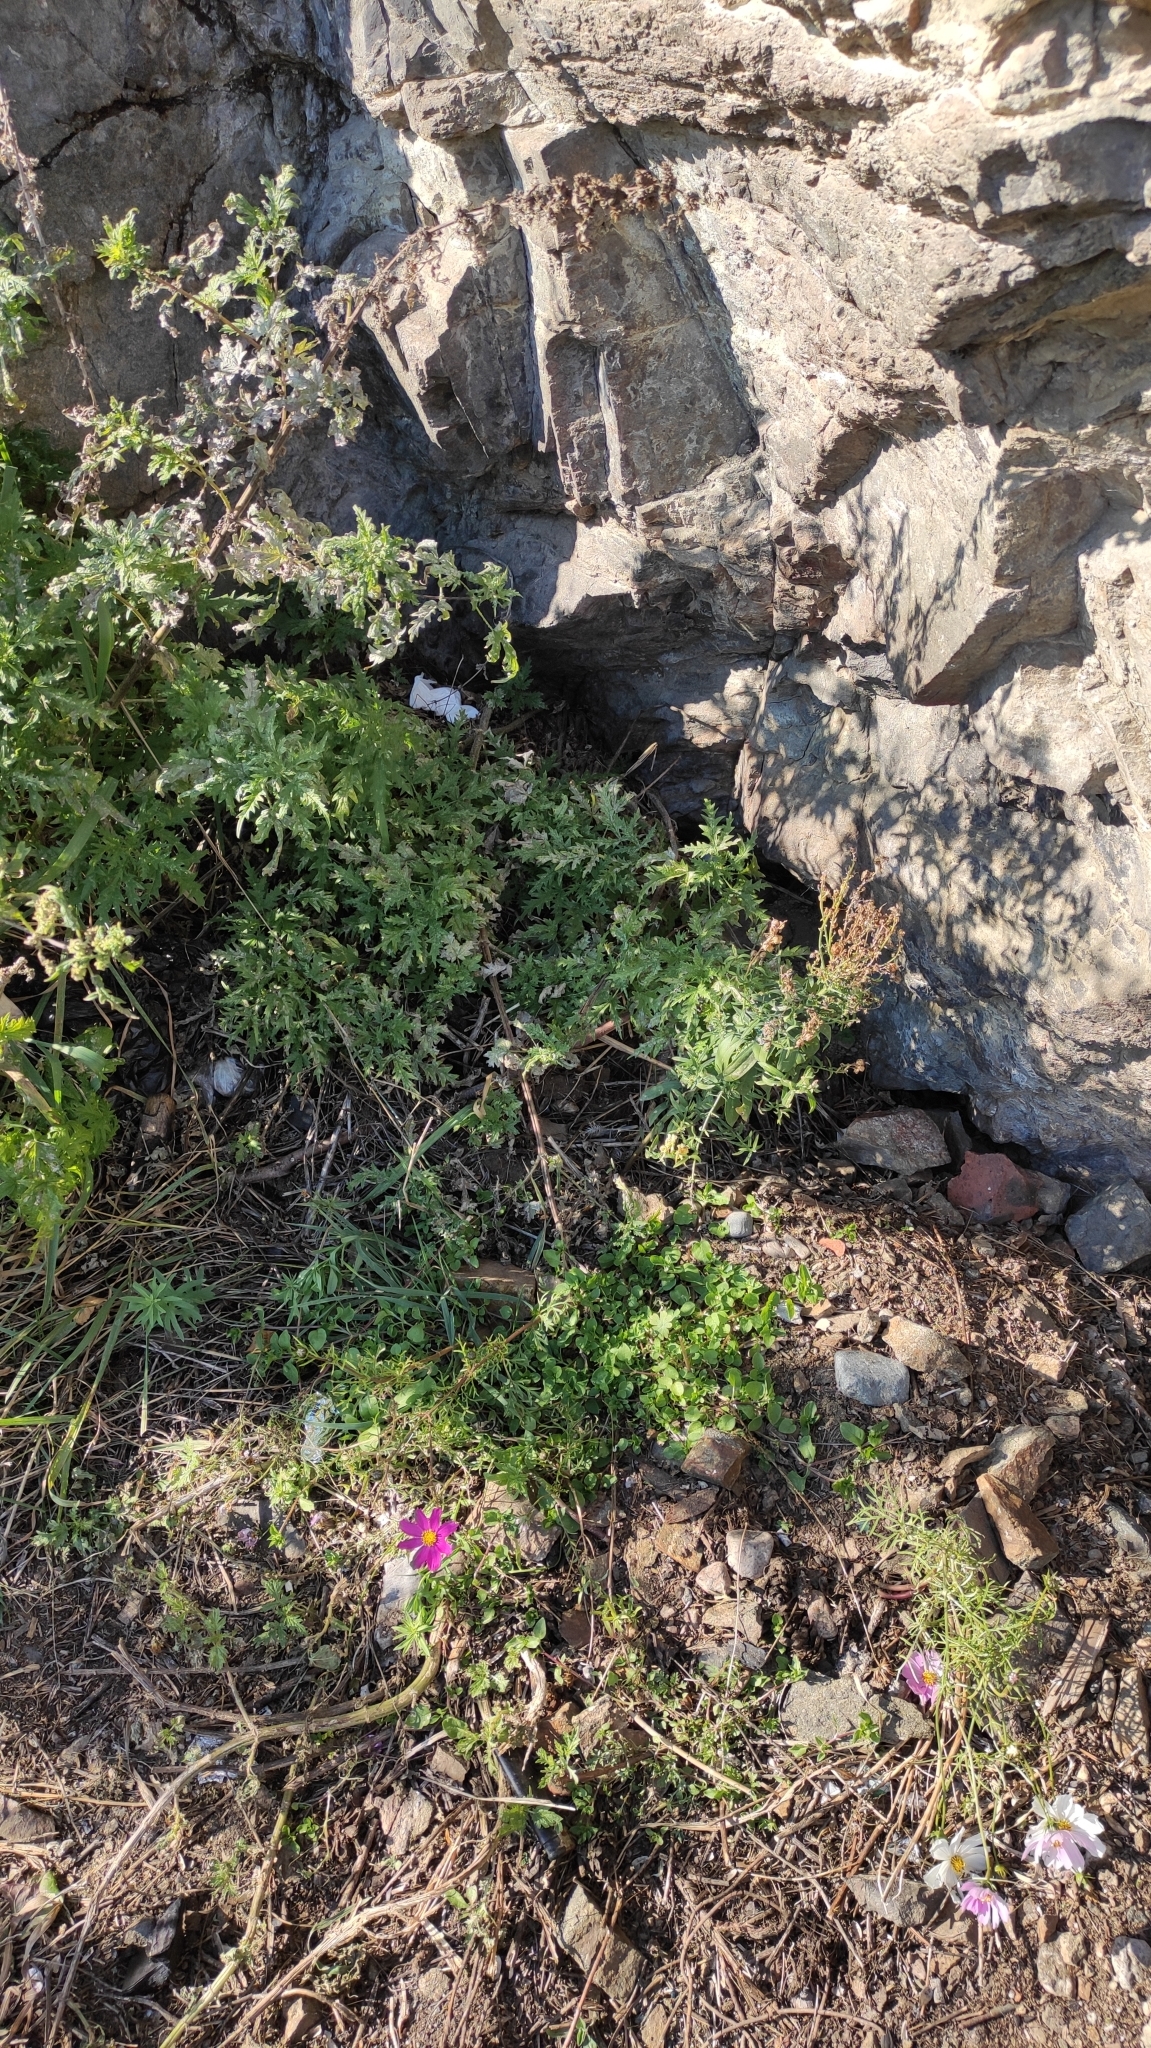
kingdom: Plantae
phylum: Tracheophyta
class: Magnoliopsida
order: Asterales
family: Asteraceae
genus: Cosmos
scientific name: Cosmos bipinnatus
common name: Garden cosmos
